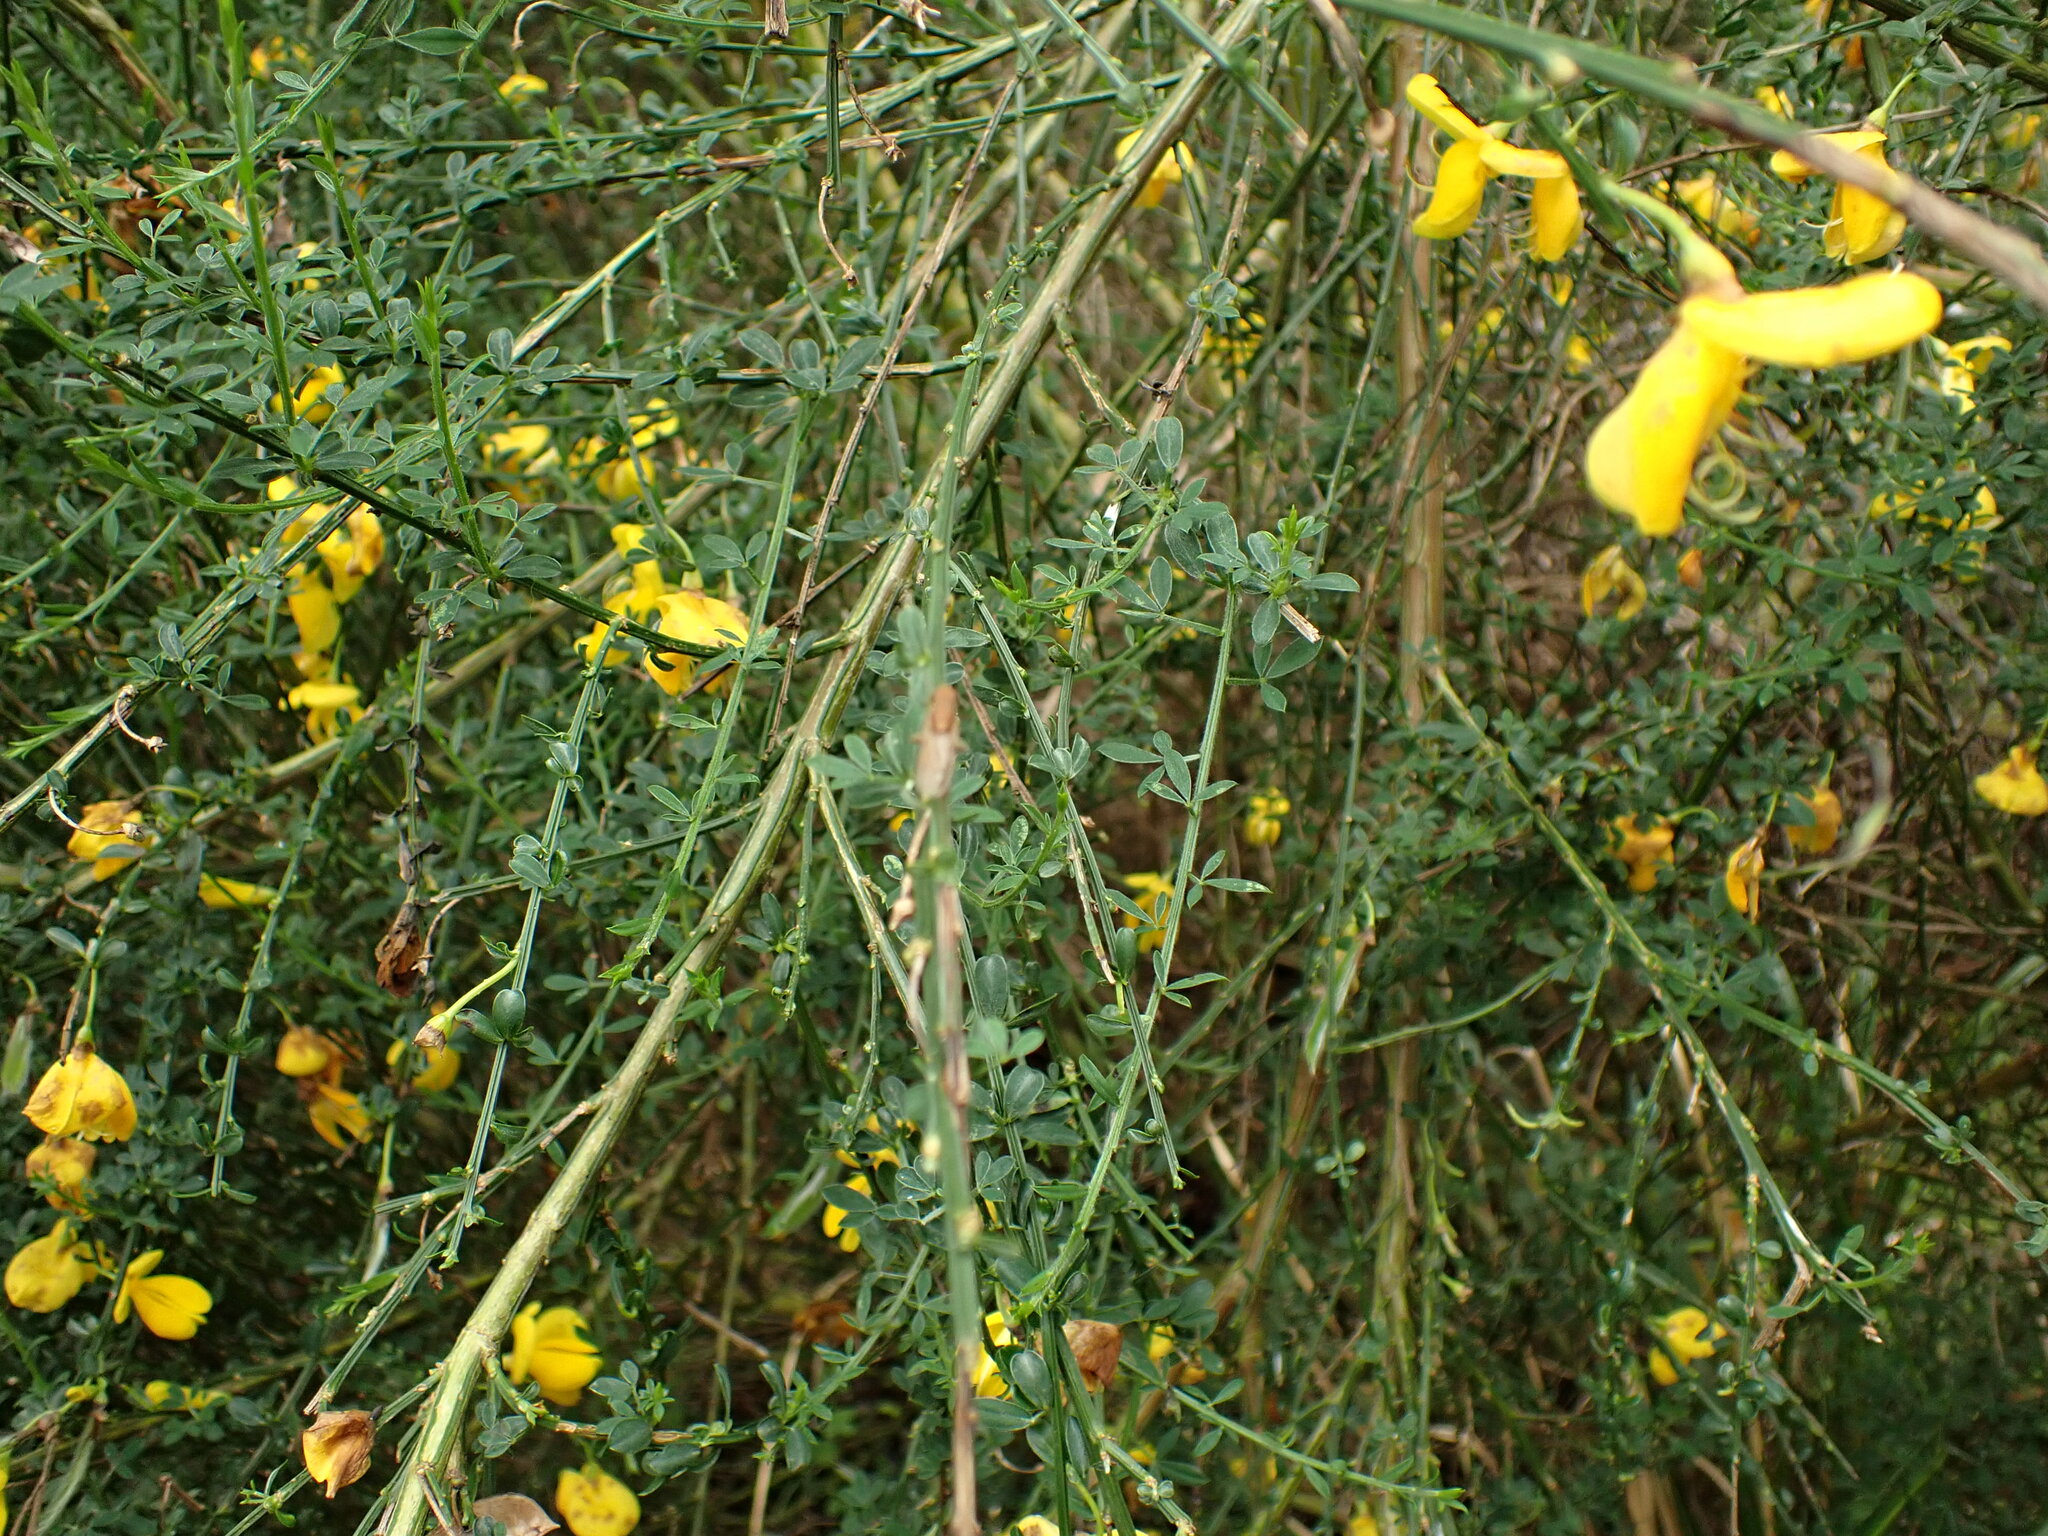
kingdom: Plantae
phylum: Tracheophyta
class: Magnoliopsida
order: Fabales
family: Fabaceae
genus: Cytisus
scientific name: Cytisus scoparius
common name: Scotch broom
